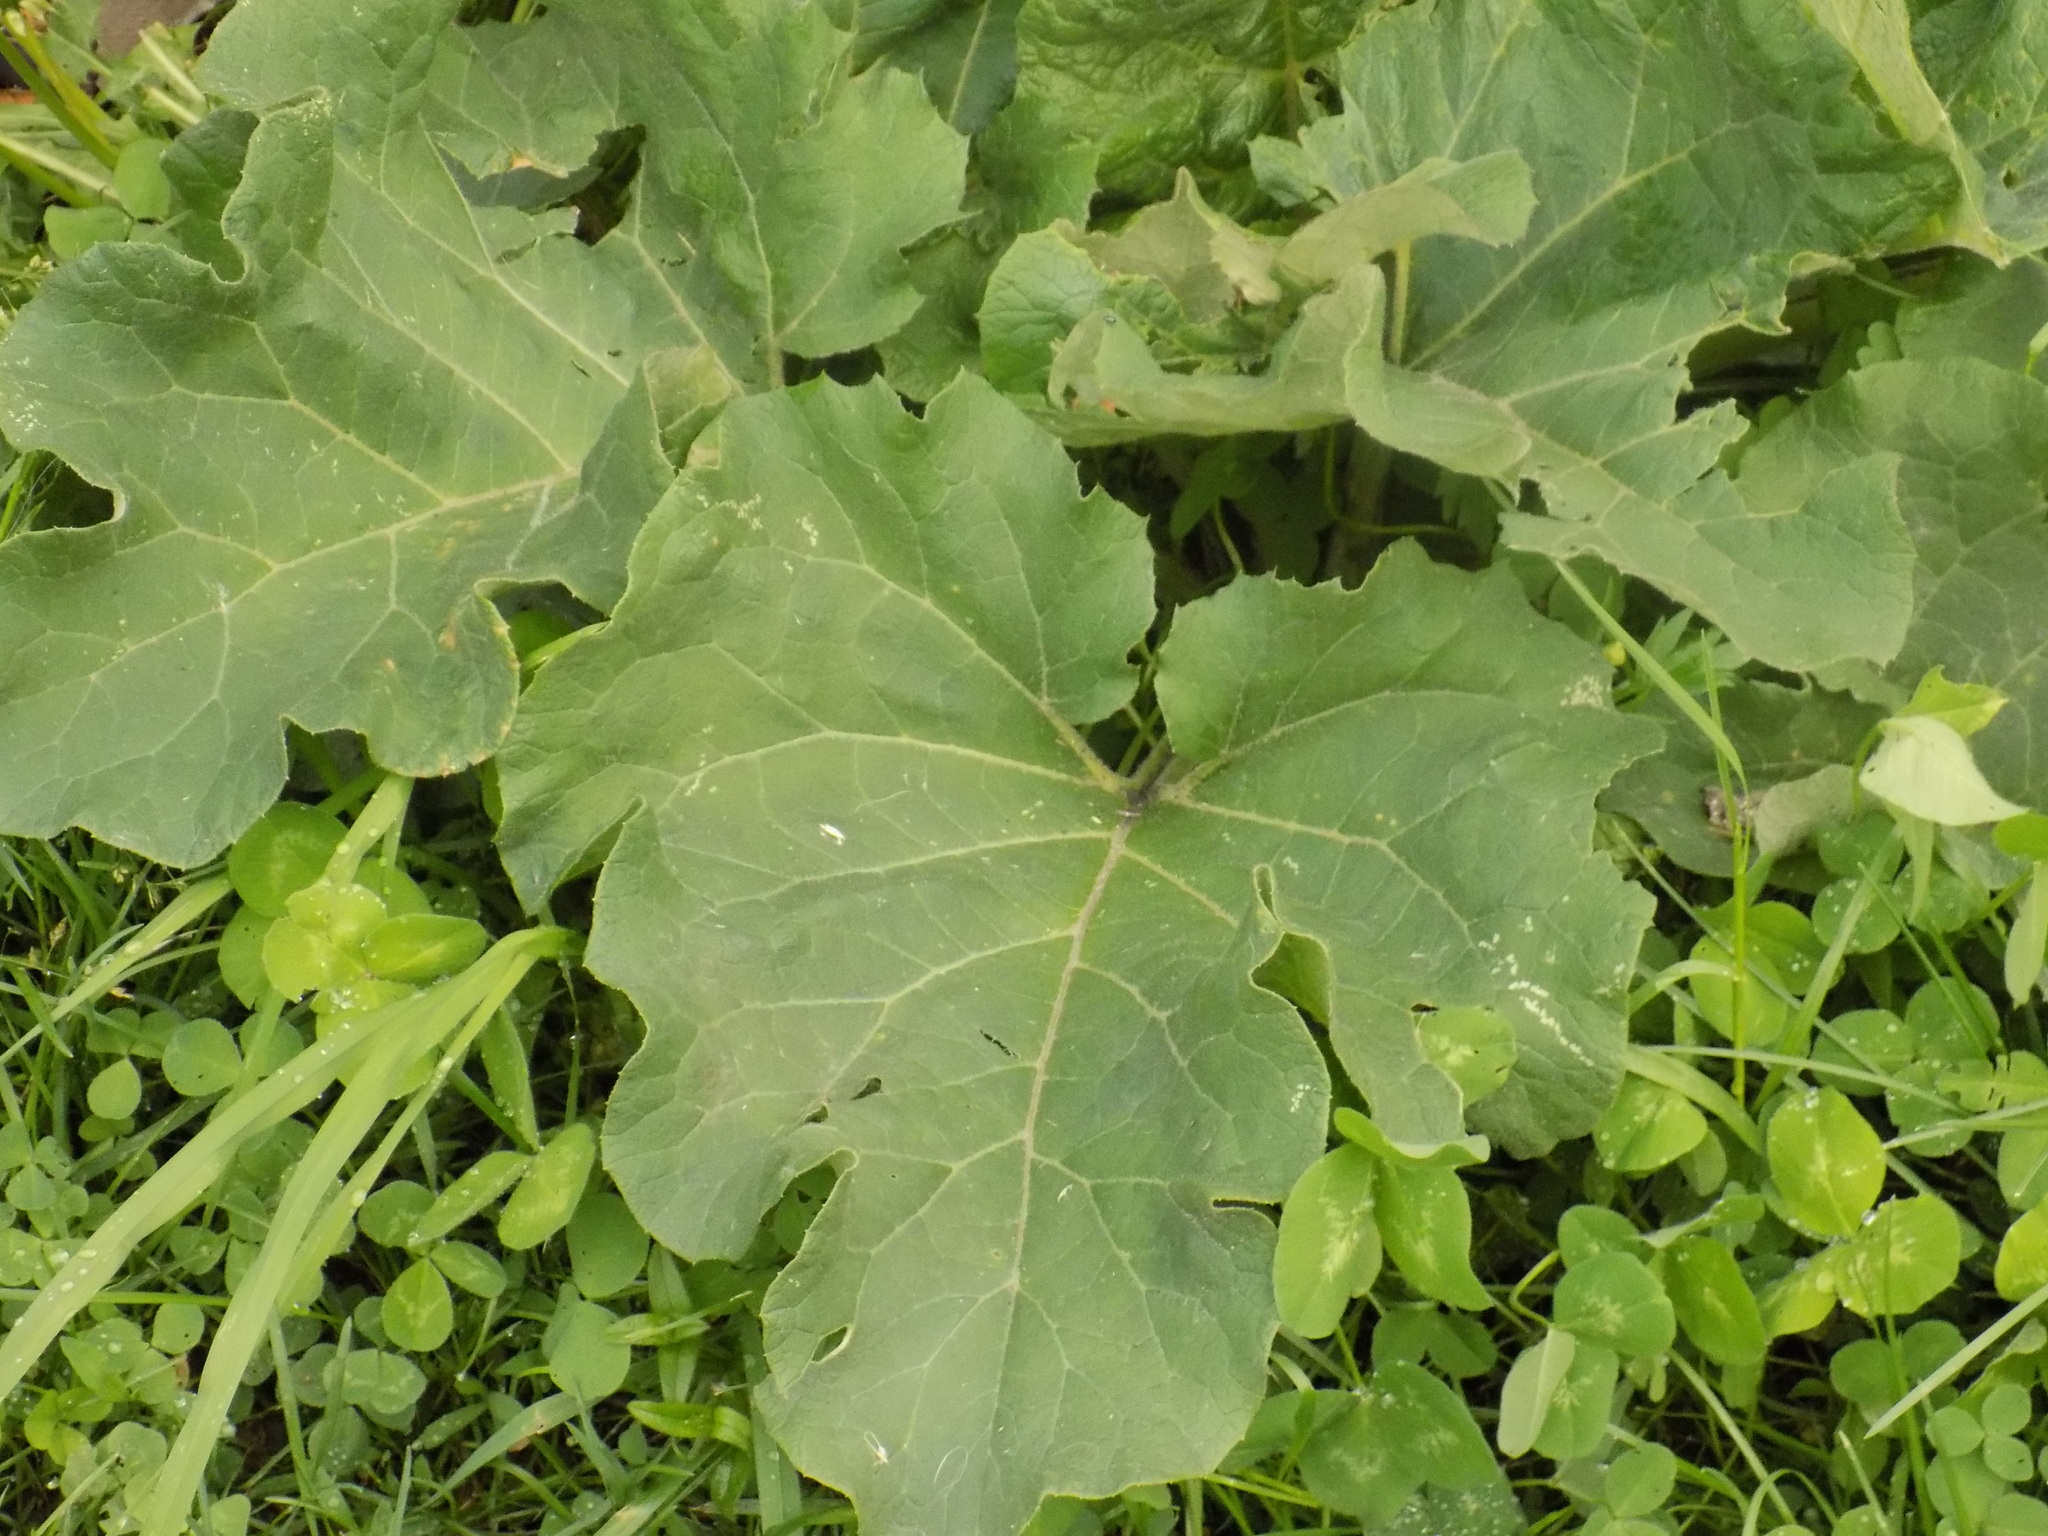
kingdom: Plantae
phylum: Tracheophyta
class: Magnoliopsida
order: Asterales
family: Asteraceae
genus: Arctium
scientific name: Arctium
